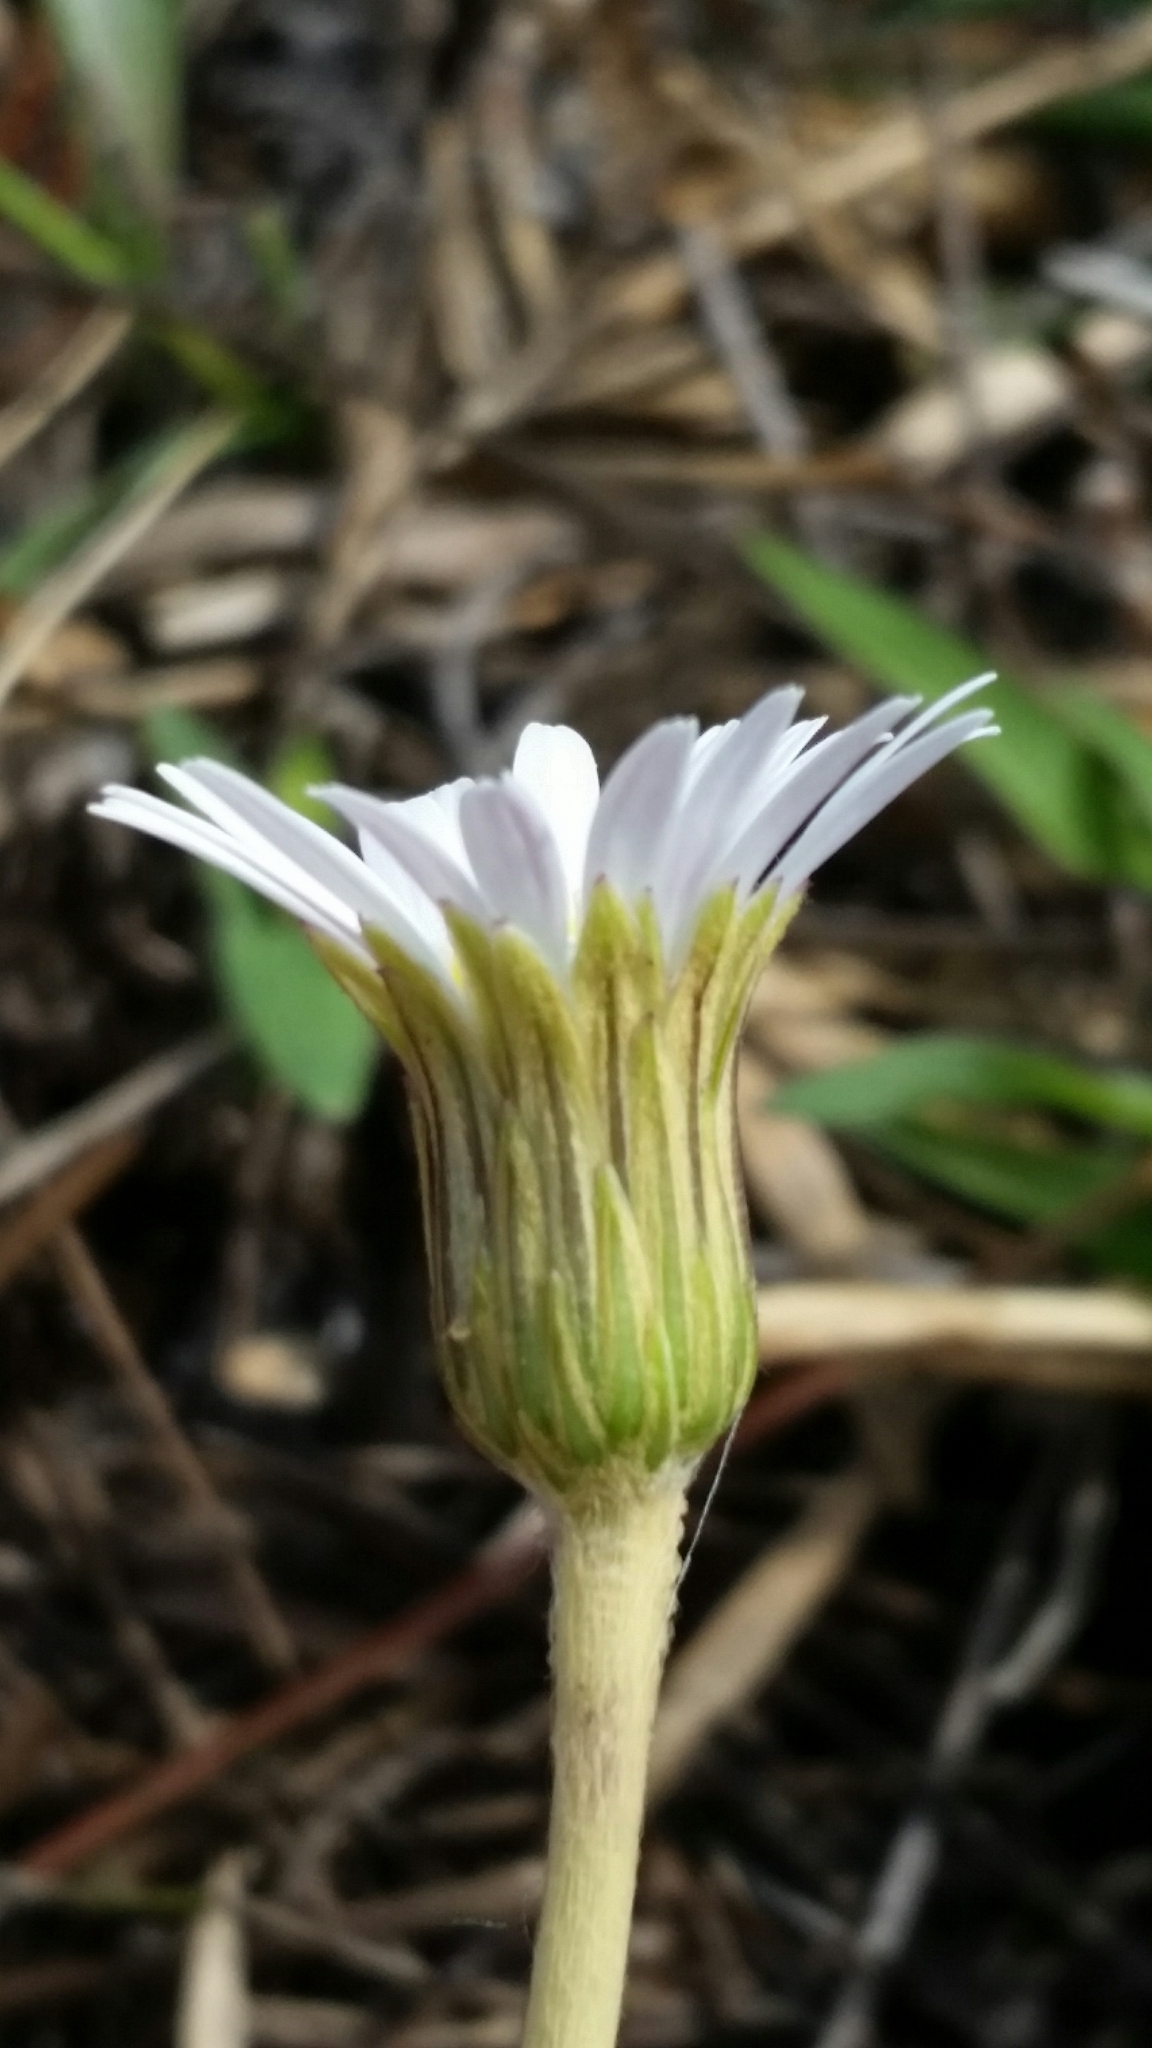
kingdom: Plantae
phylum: Tracheophyta
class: Magnoliopsida
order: Asterales
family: Asteraceae
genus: Chaptalia
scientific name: Chaptalia tomentosa
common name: Woolly sunbonnet
